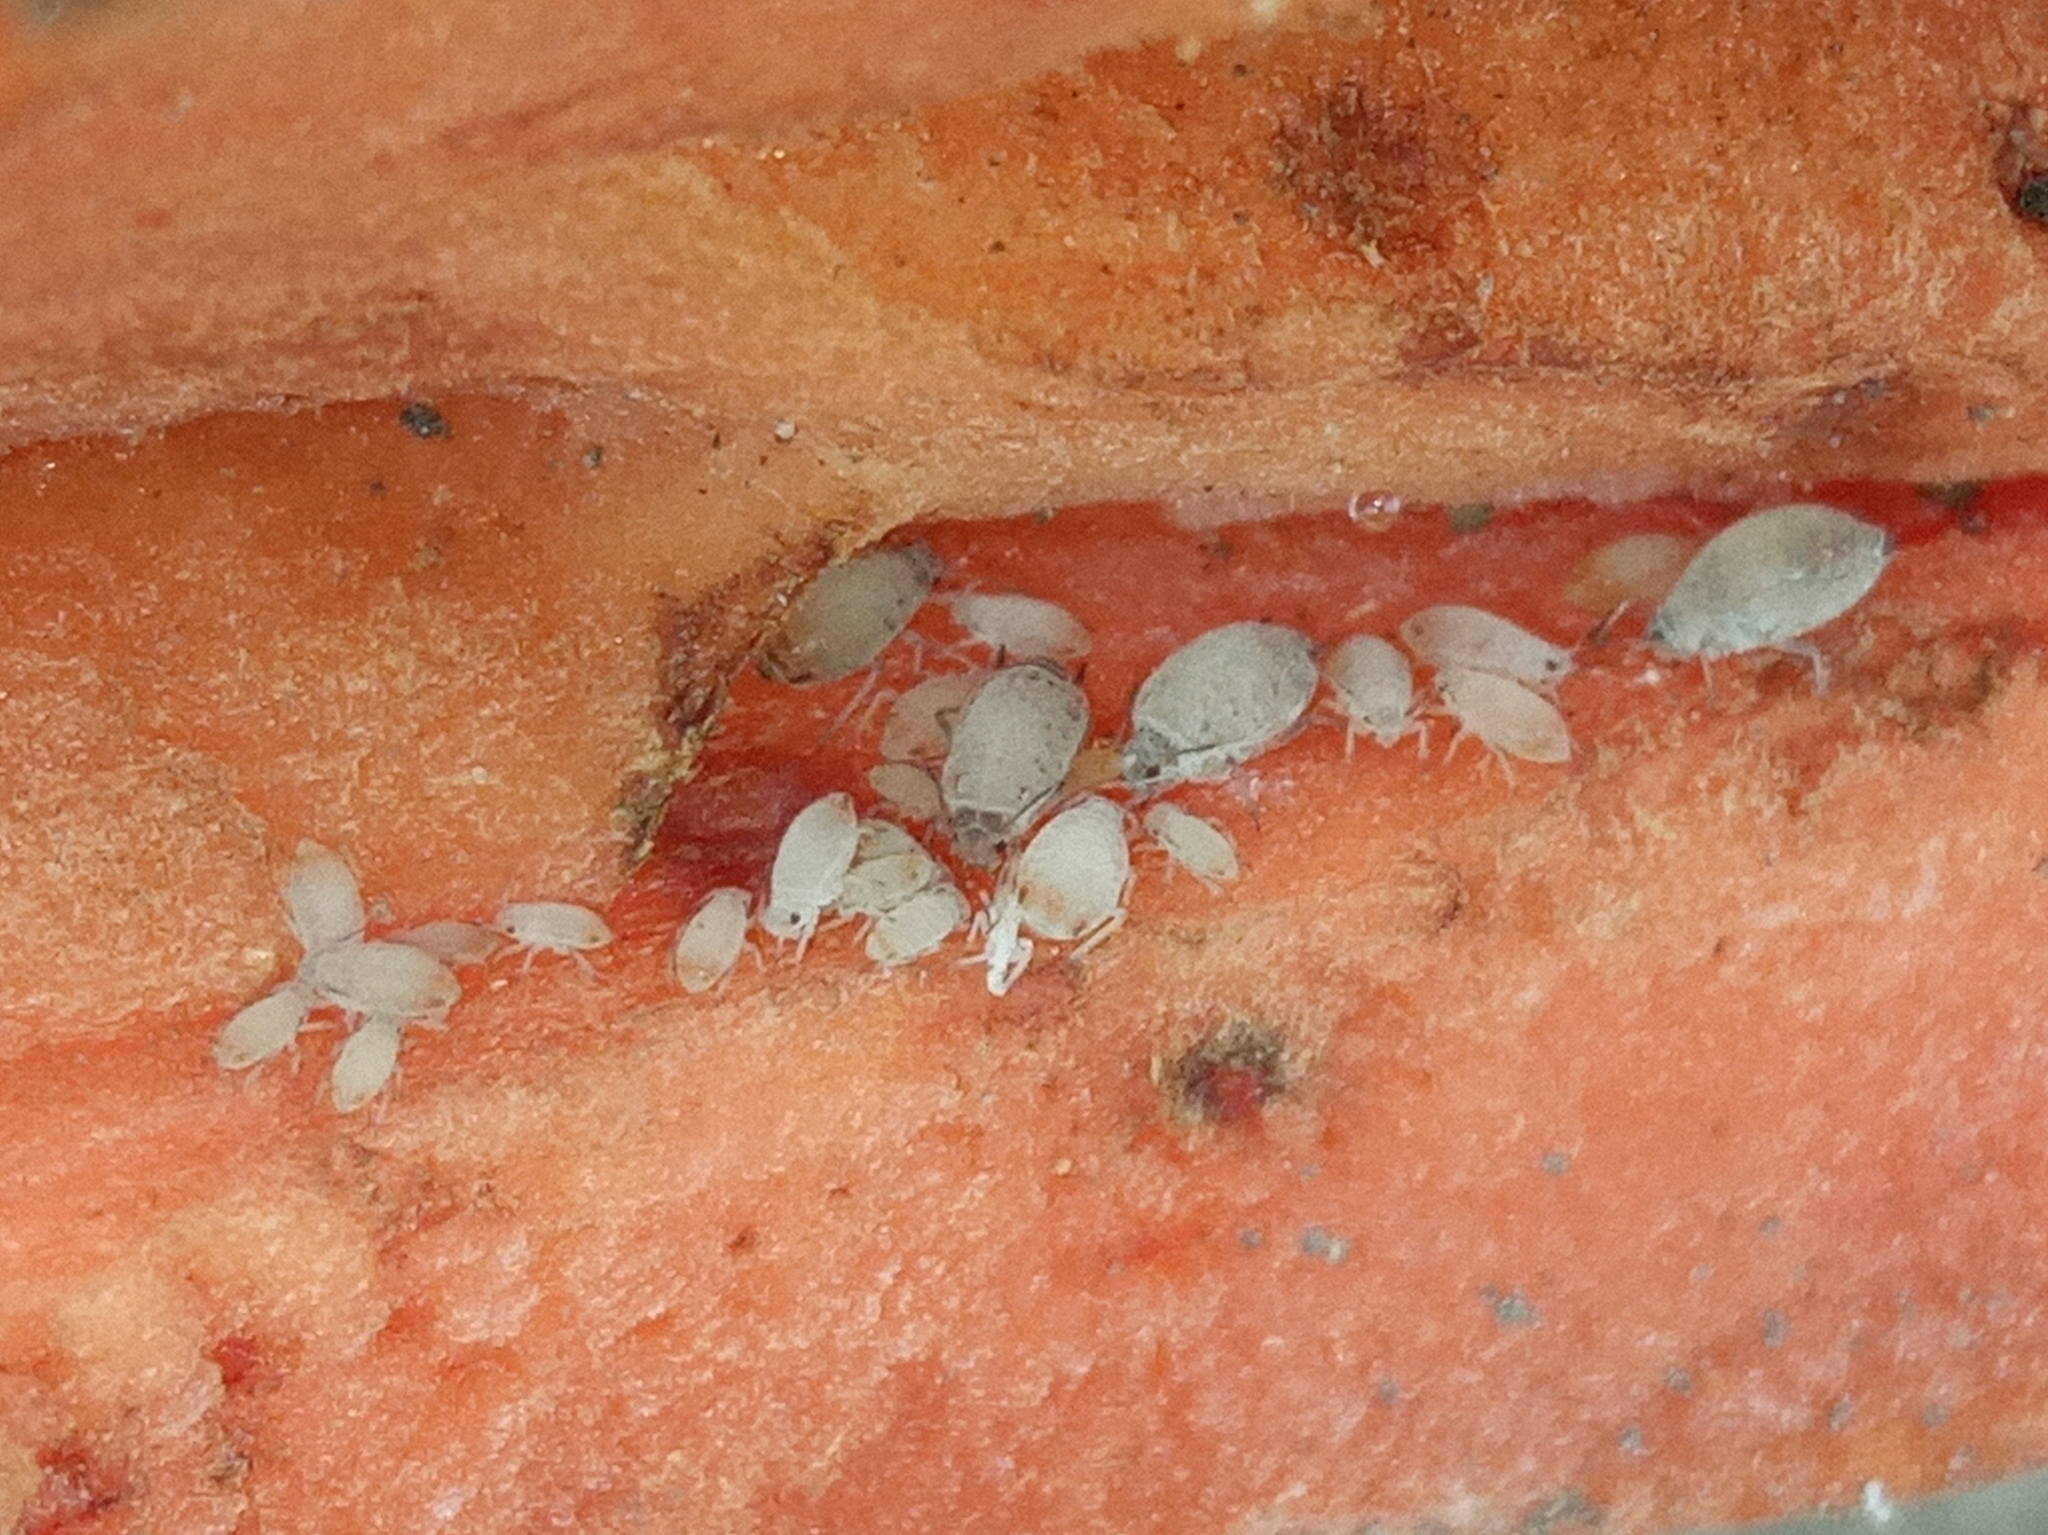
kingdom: Animalia
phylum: Arthropoda
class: Insecta
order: Hemiptera
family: Aphididae
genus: Dysaphis
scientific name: Dysaphis
